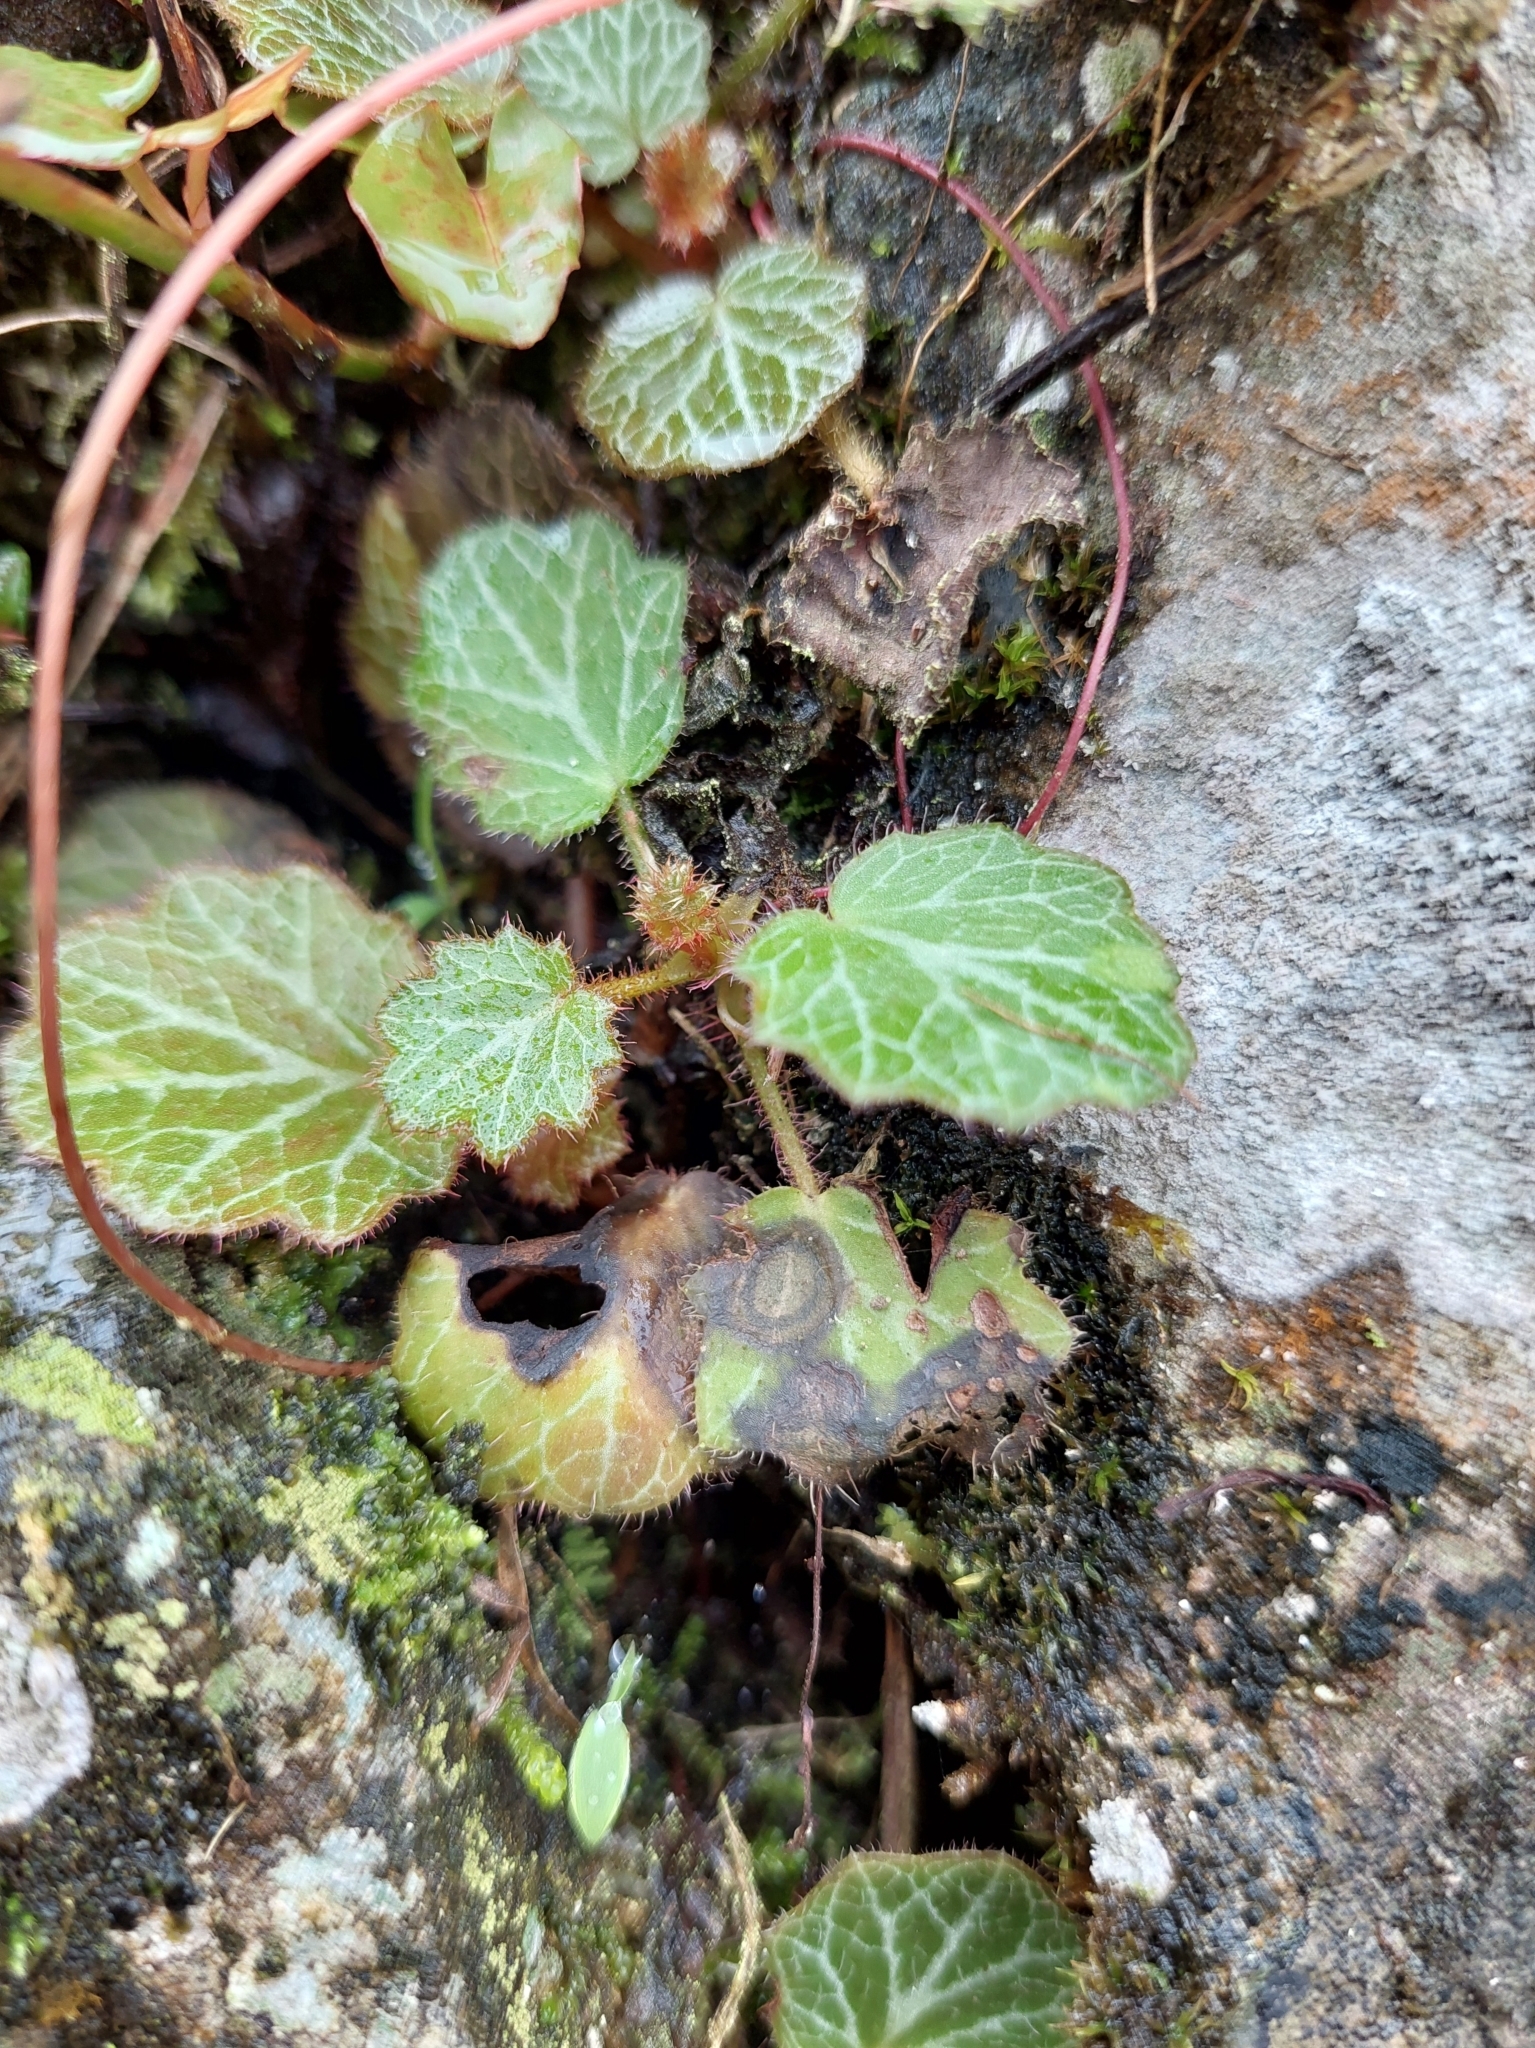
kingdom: Plantae
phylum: Tracheophyta
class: Magnoliopsida
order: Saxifragales
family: Saxifragaceae
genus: Saxifraga
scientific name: Saxifraga stolonifera
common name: Creeping saxifrage
